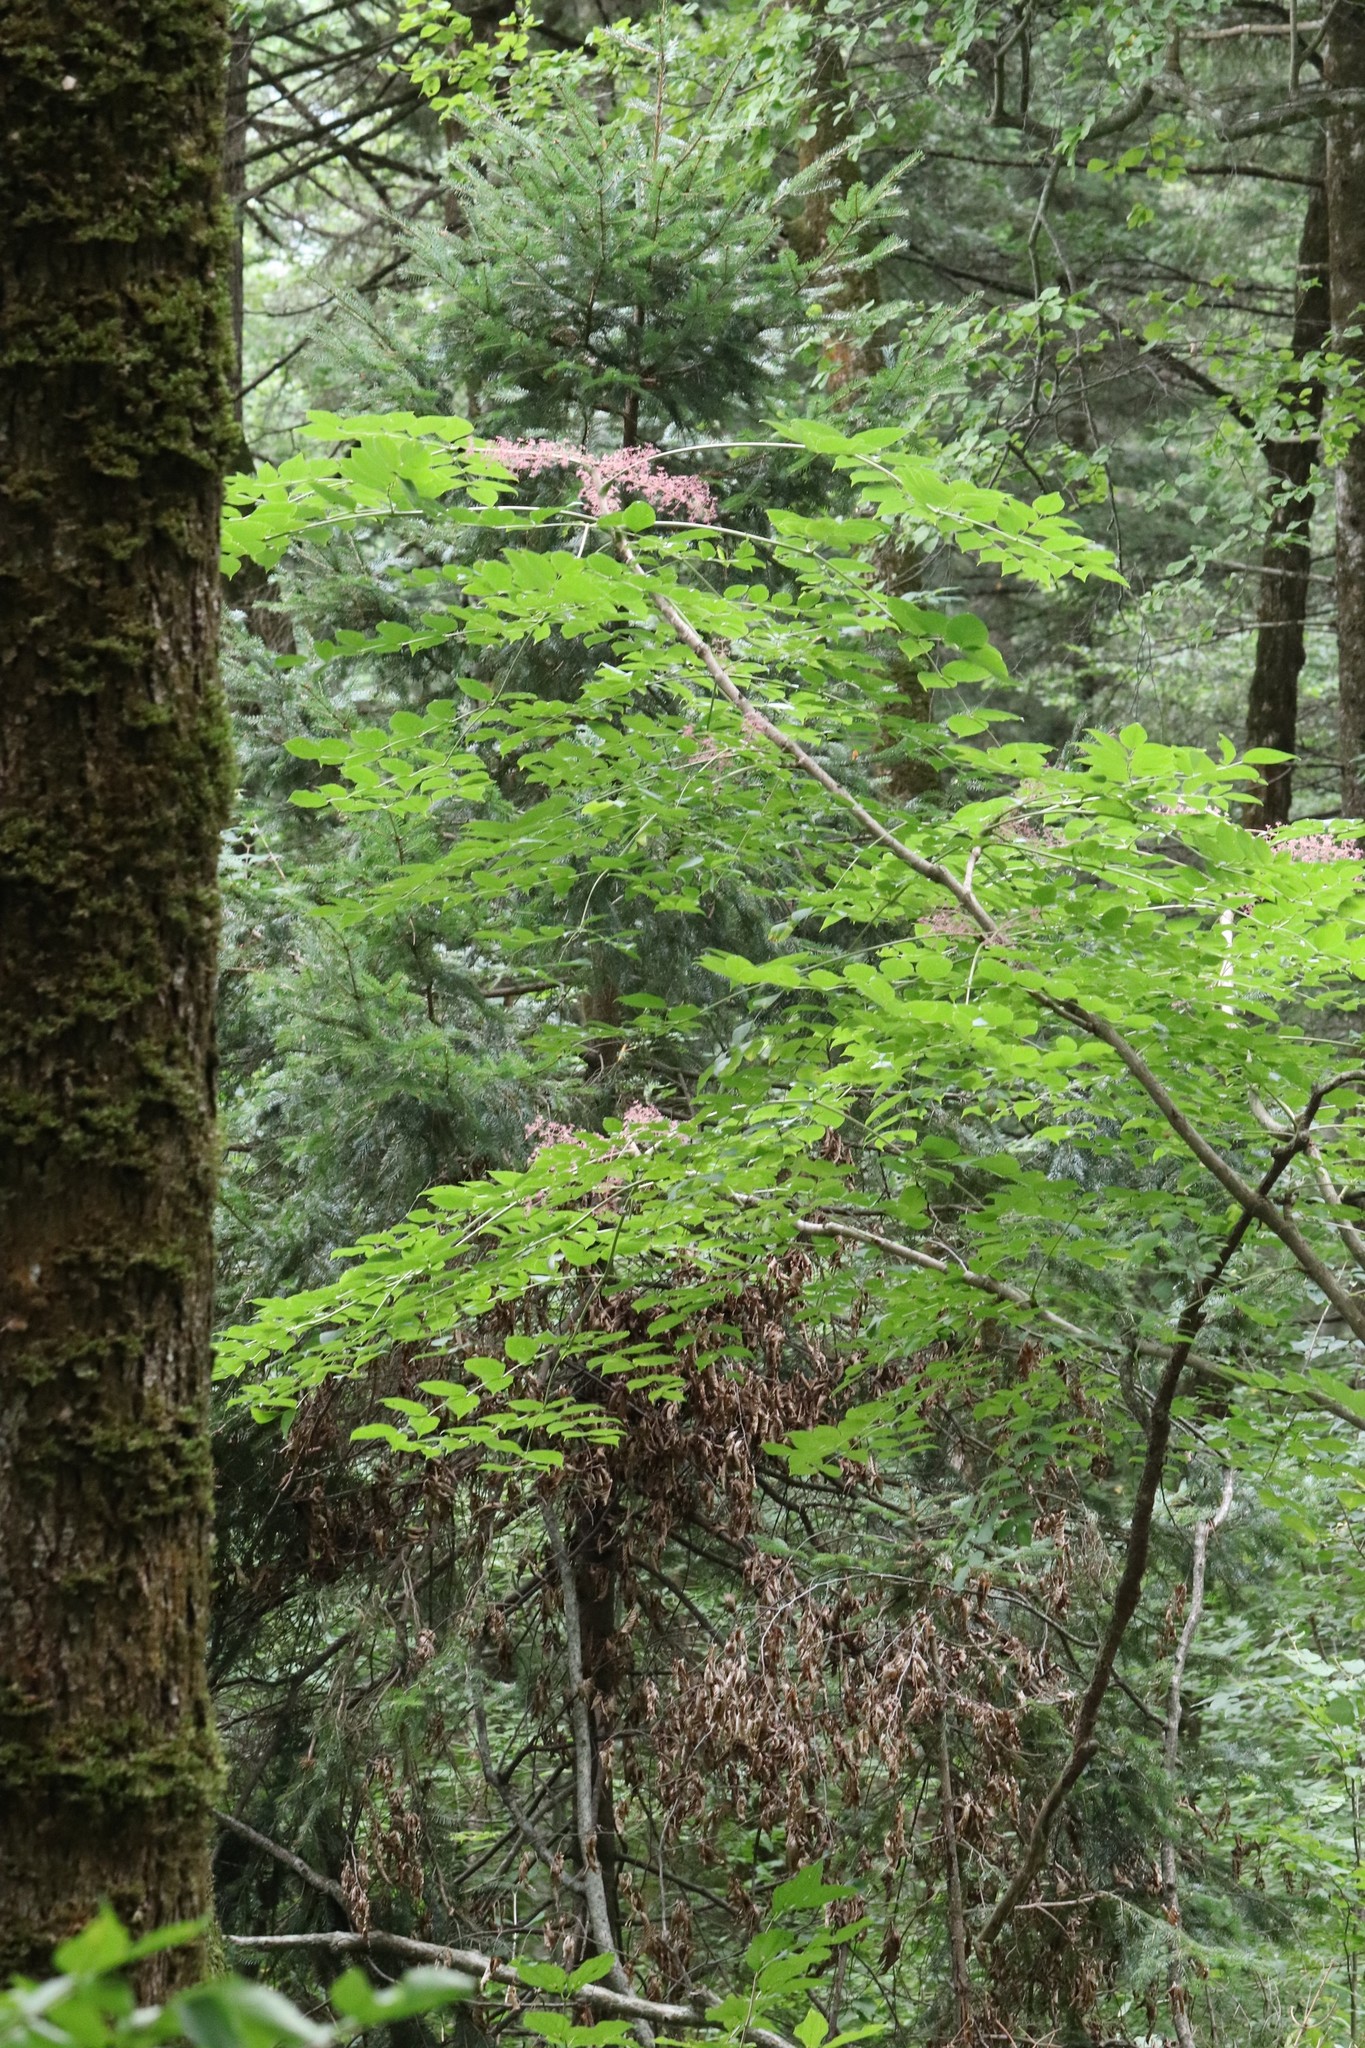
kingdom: Plantae
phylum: Tracheophyta
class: Magnoliopsida
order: Apiales
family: Araliaceae
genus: Aralia
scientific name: Aralia elata
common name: Japanese angelica-tree
